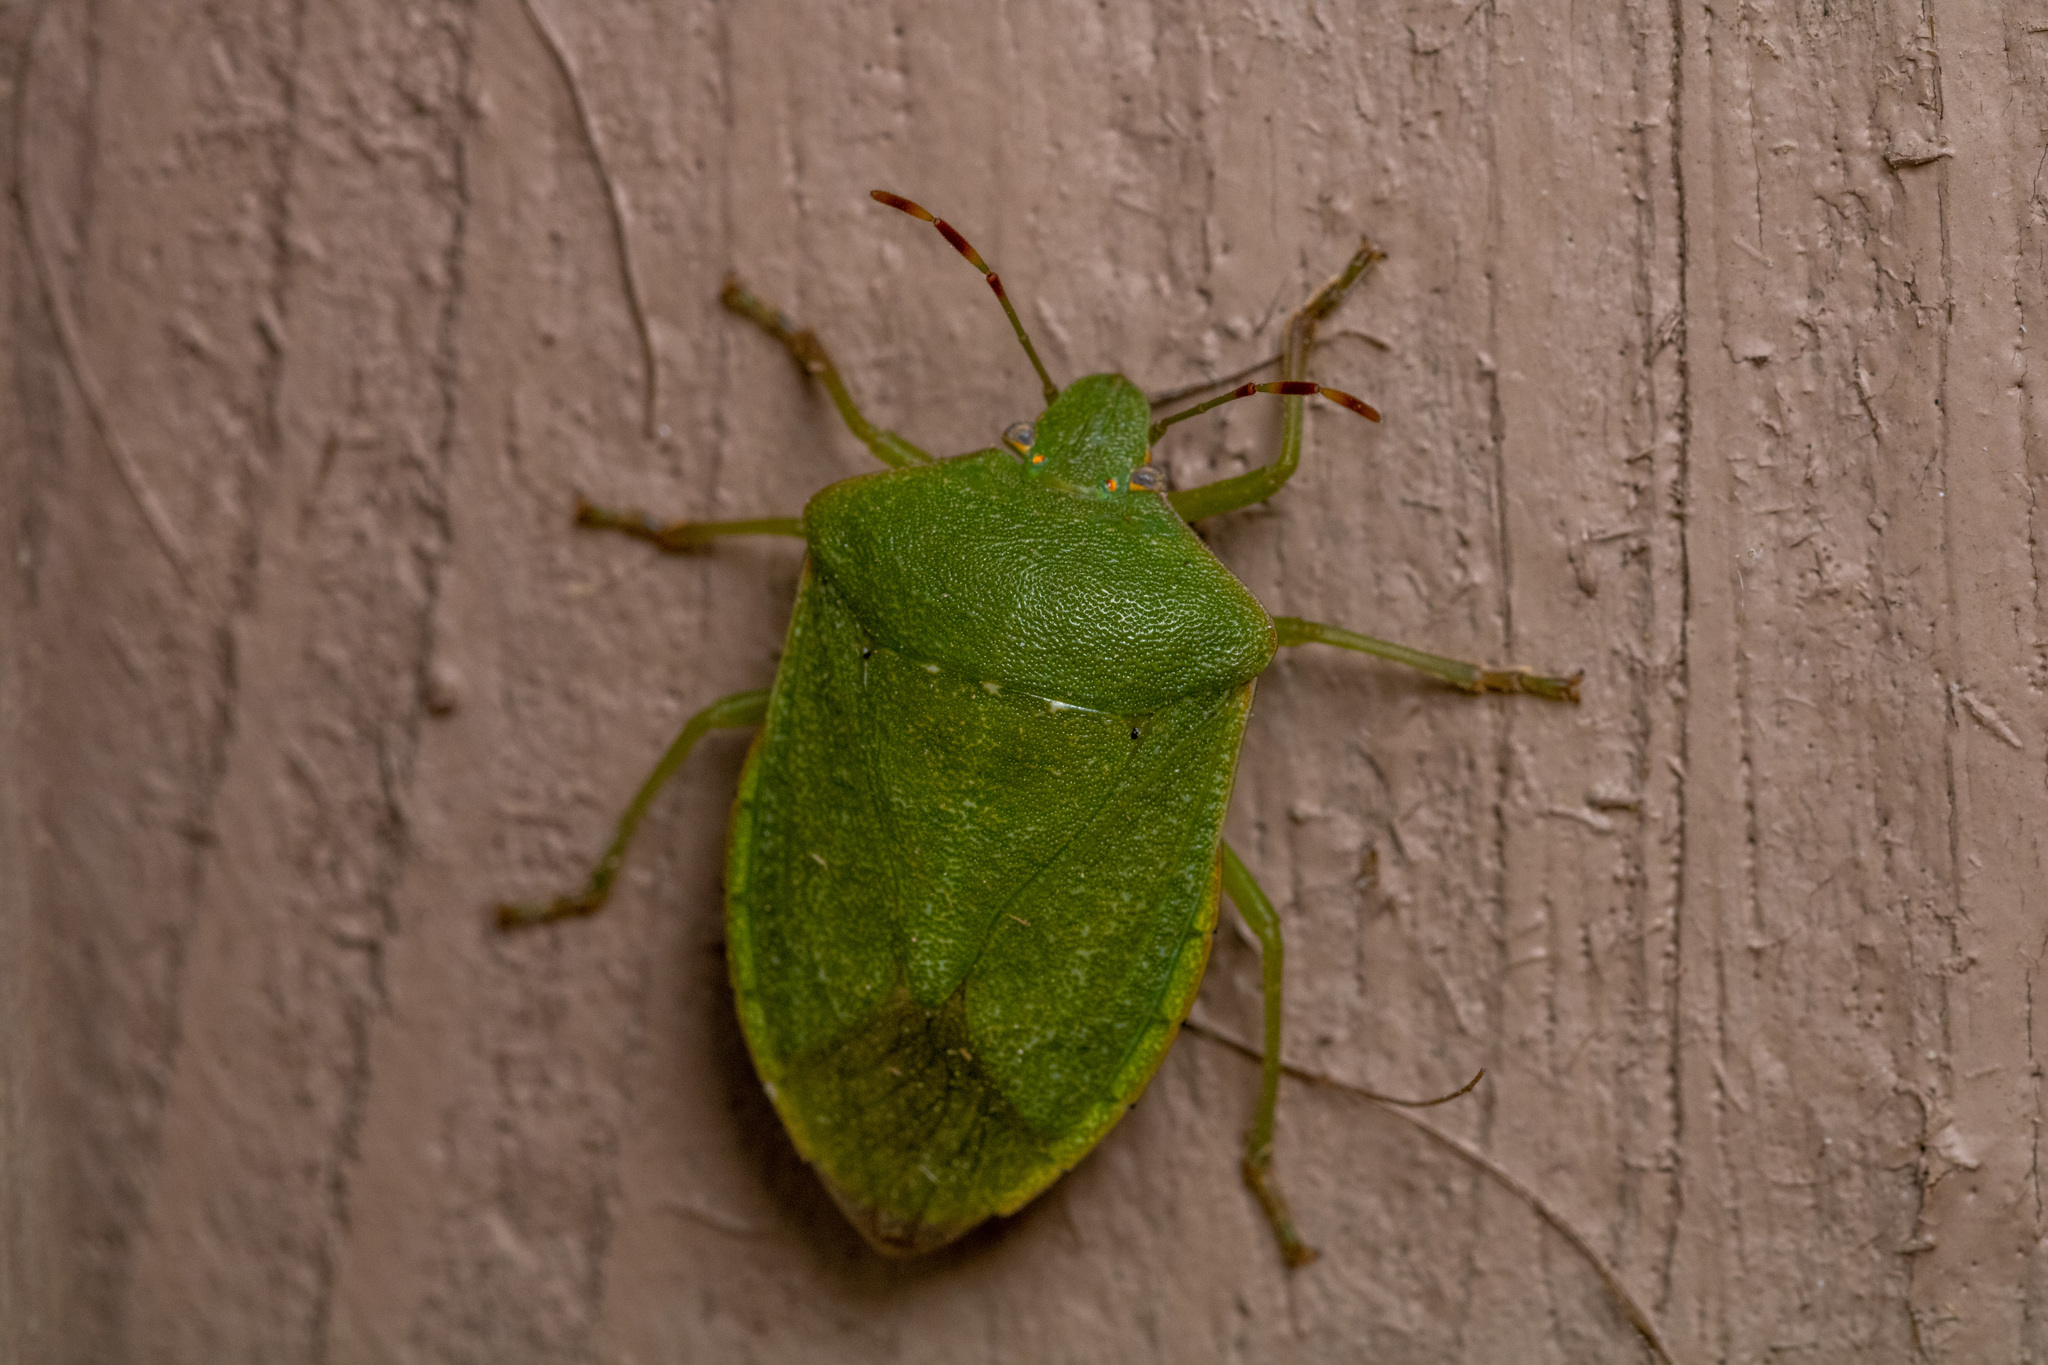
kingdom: Animalia
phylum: Arthropoda
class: Insecta
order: Hemiptera
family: Pentatomidae
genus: Nezara
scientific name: Nezara viridula
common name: Southern green stink bug
